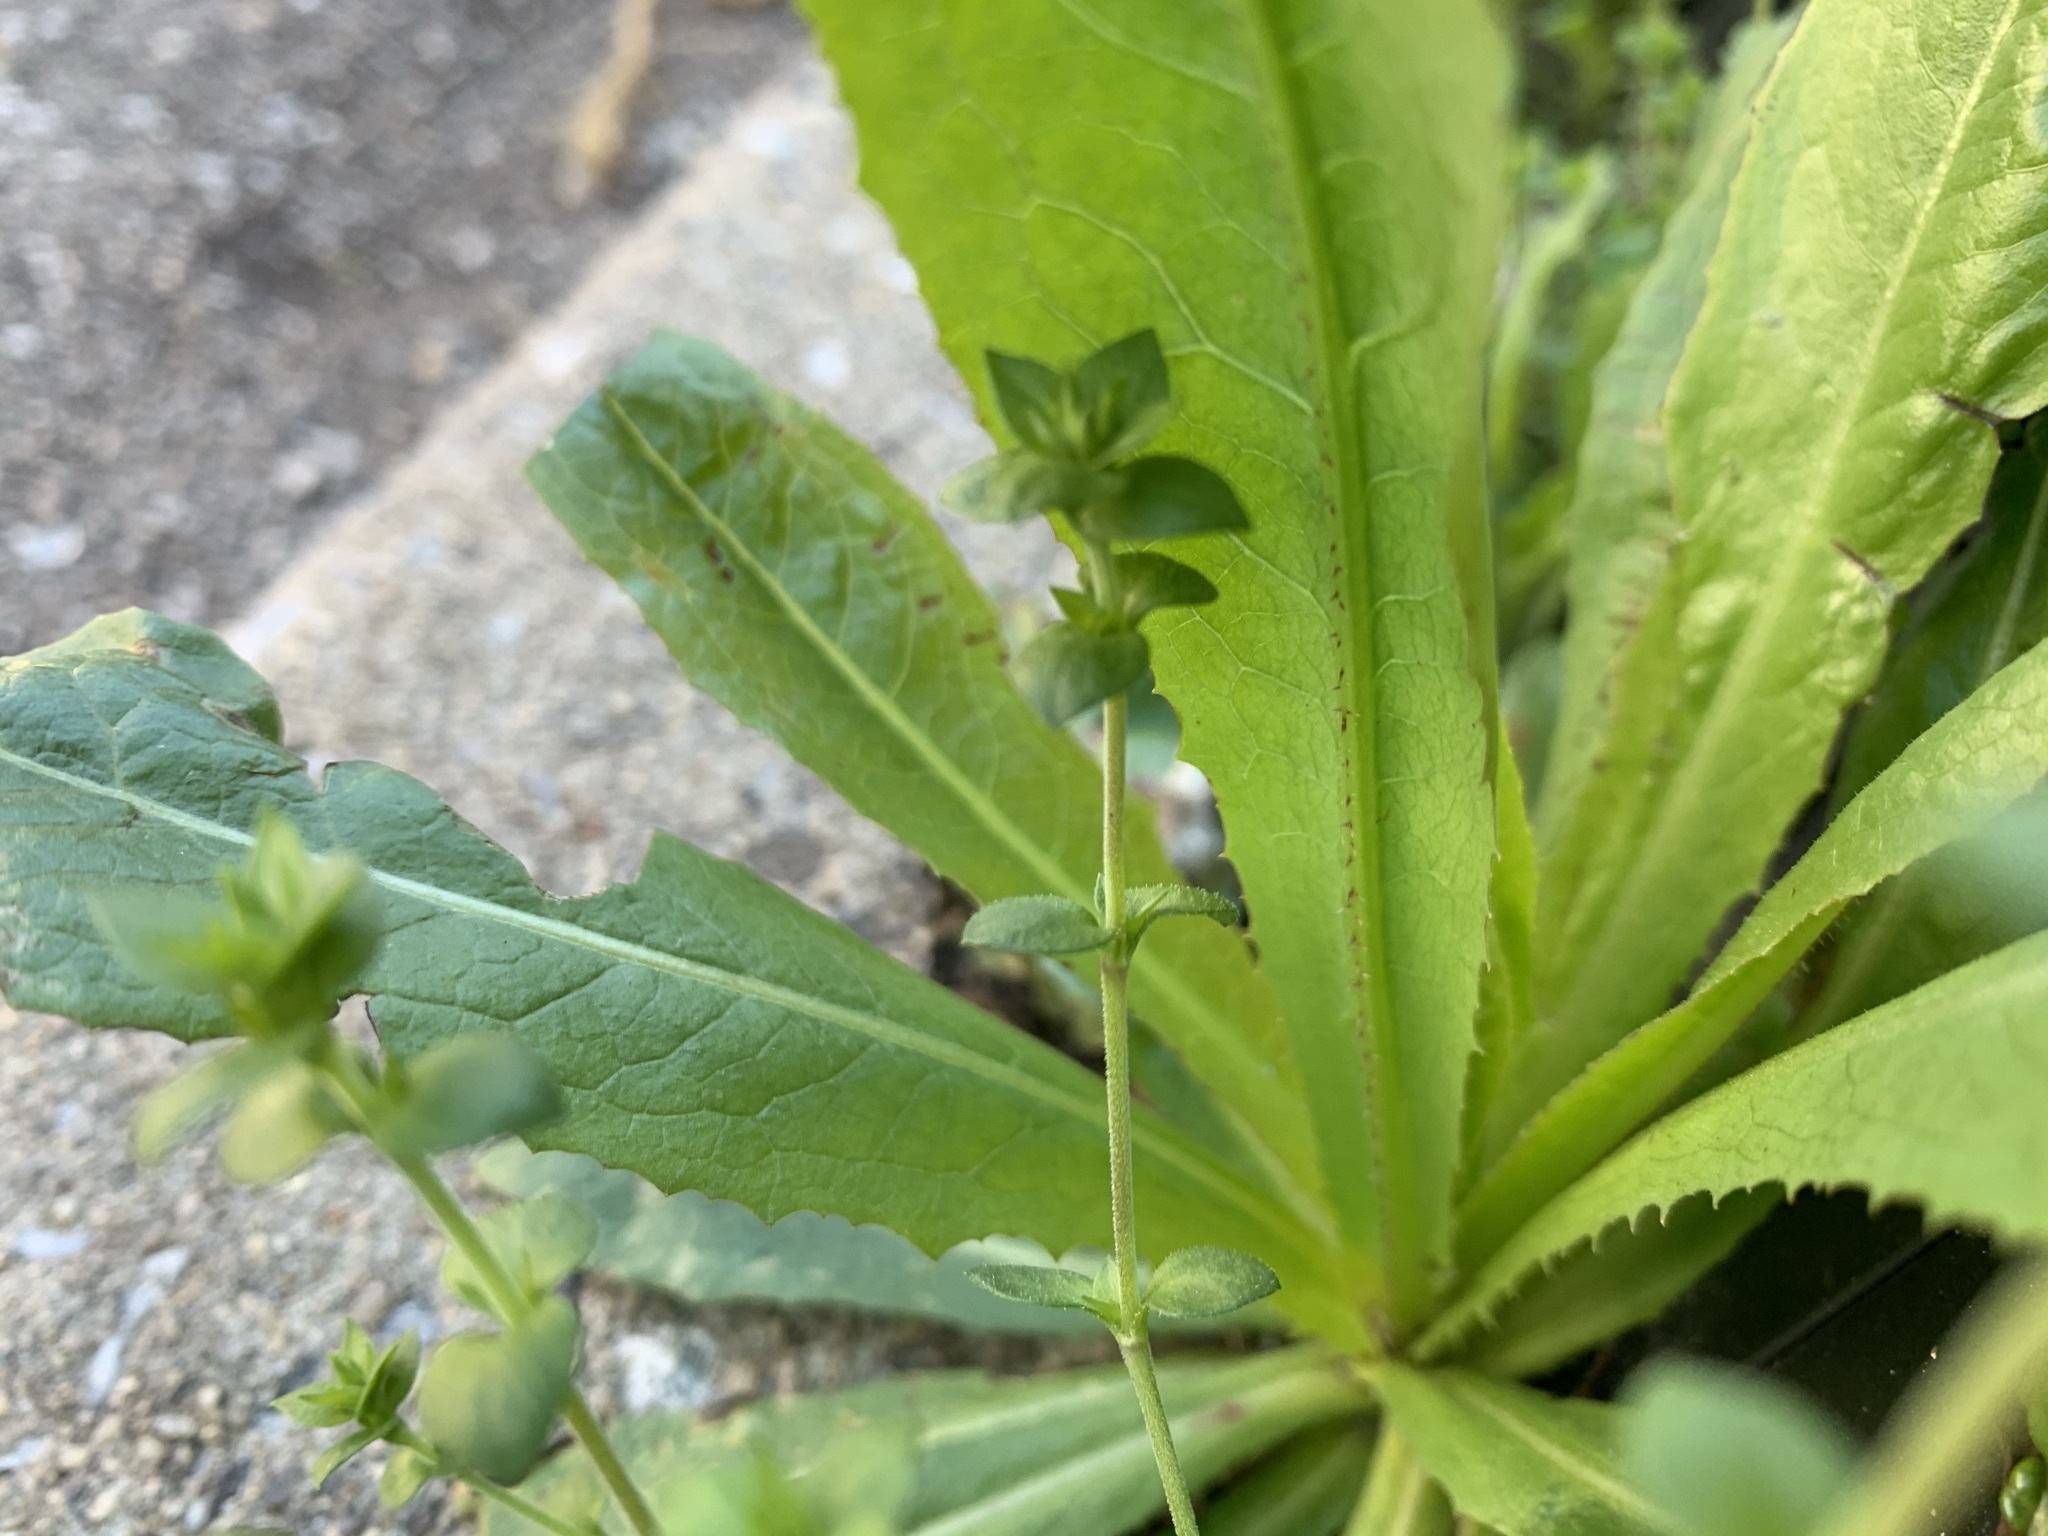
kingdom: Plantae
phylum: Tracheophyta
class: Magnoliopsida
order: Asterales
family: Asteraceae
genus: Lactuca
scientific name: Lactuca serriola
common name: Prickly lettuce
